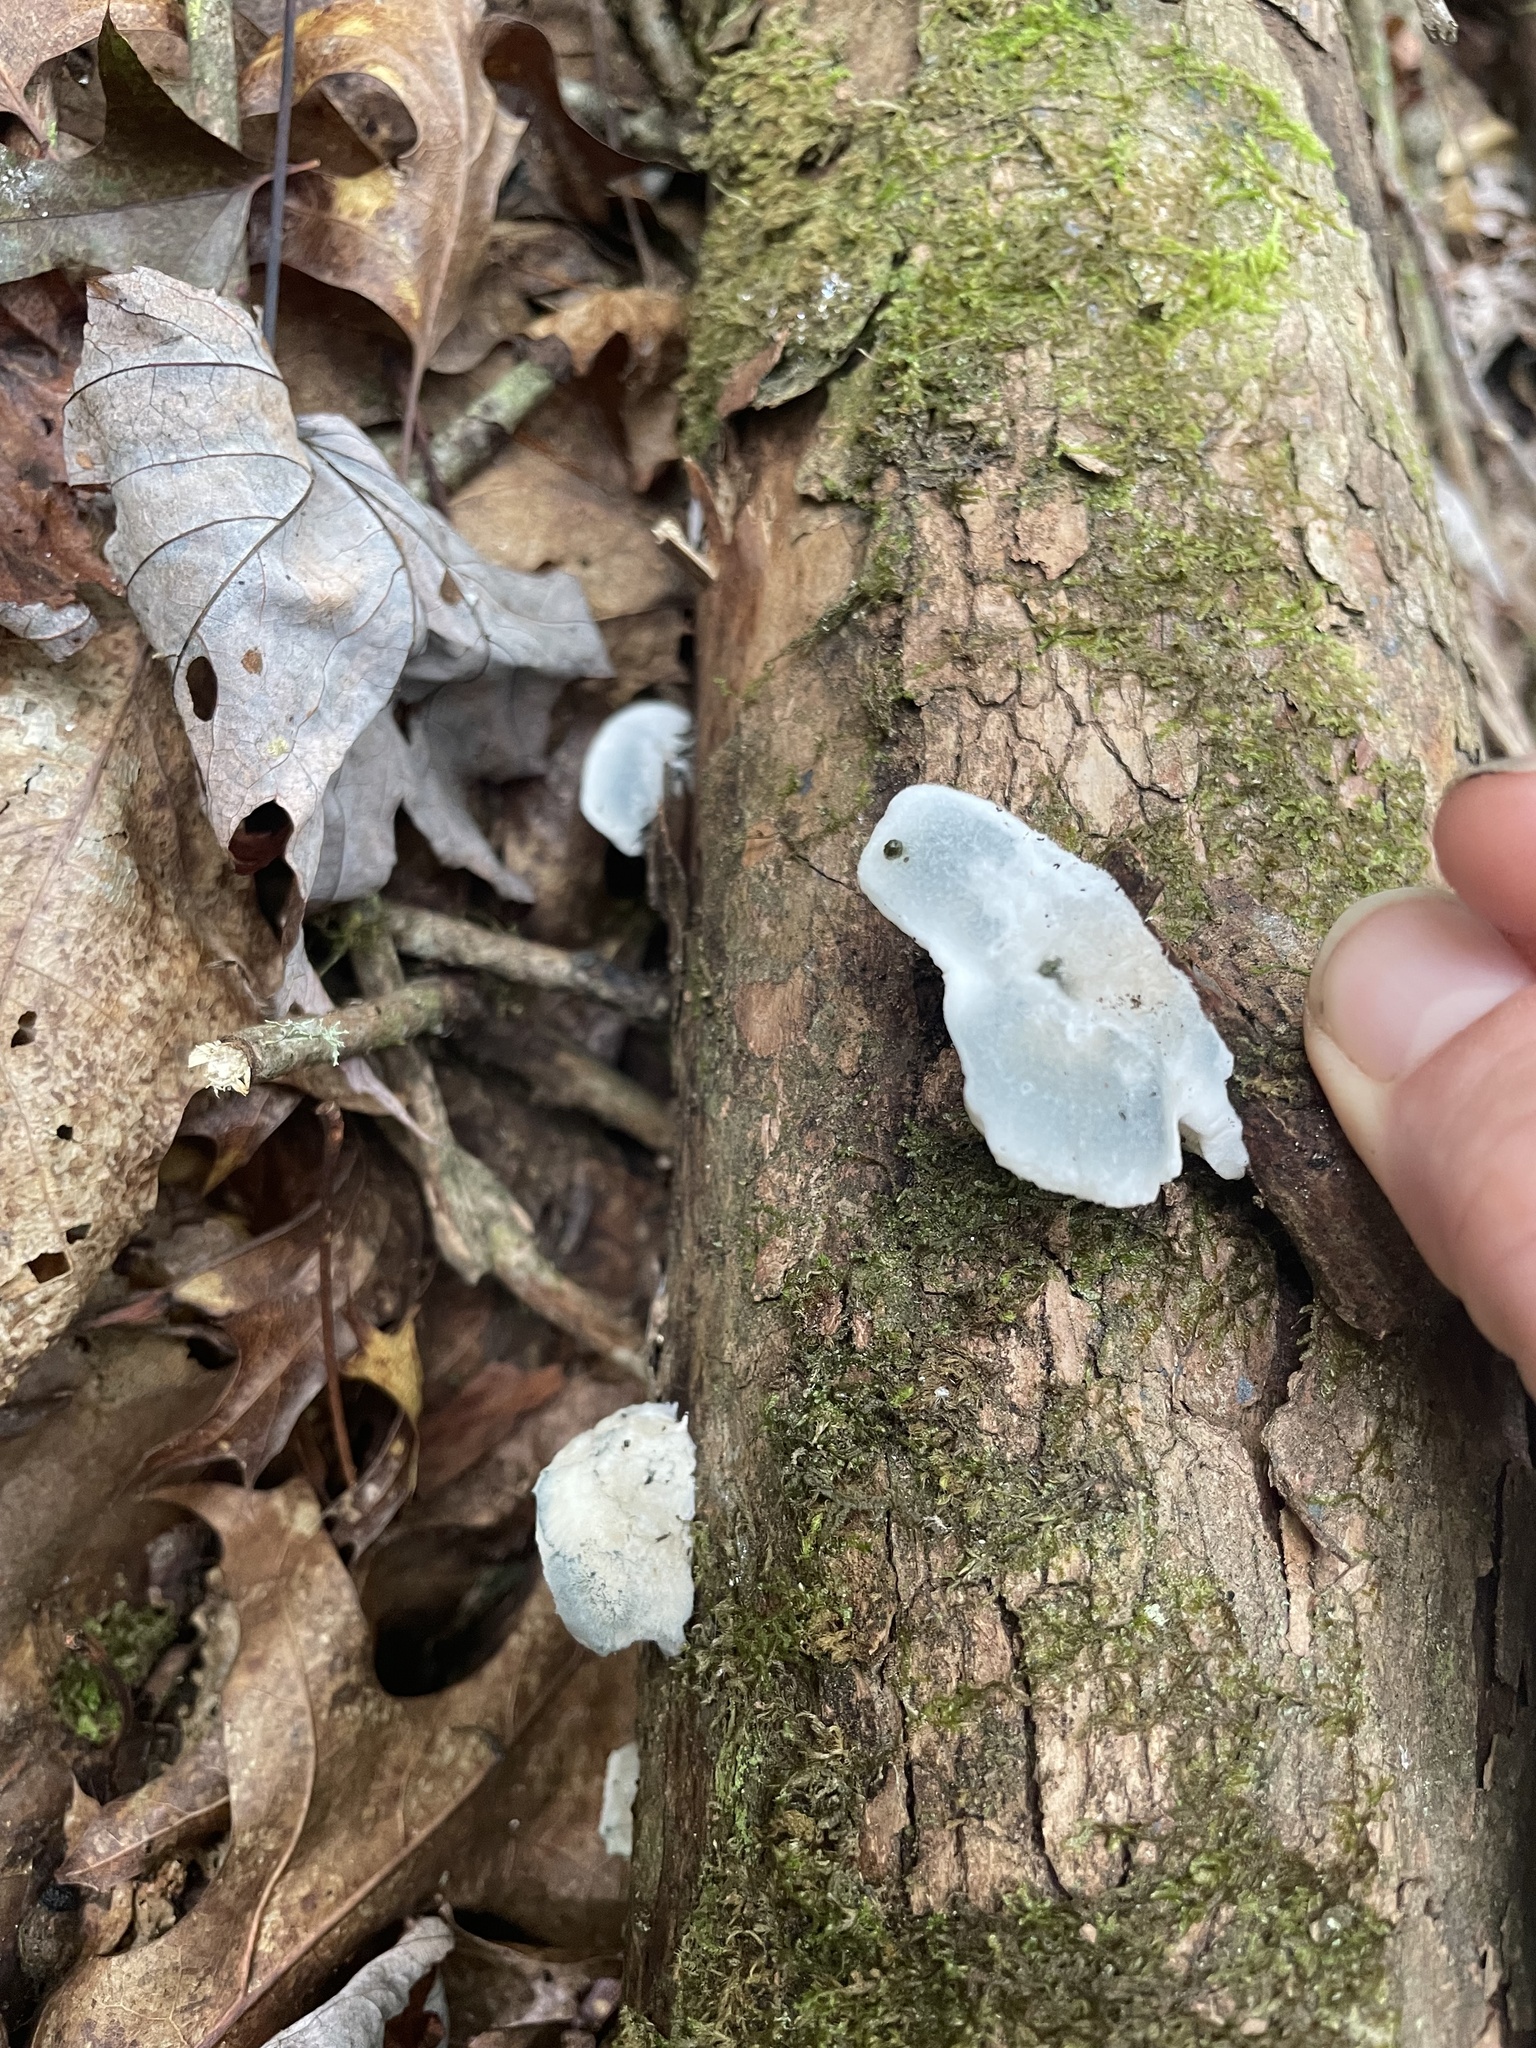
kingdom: Fungi
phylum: Basidiomycota
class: Agaricomycetes
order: Polyporales
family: Polyporaceae
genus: Cyanosporus
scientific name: Cyanosporus caesius
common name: Blue cheese polypore
